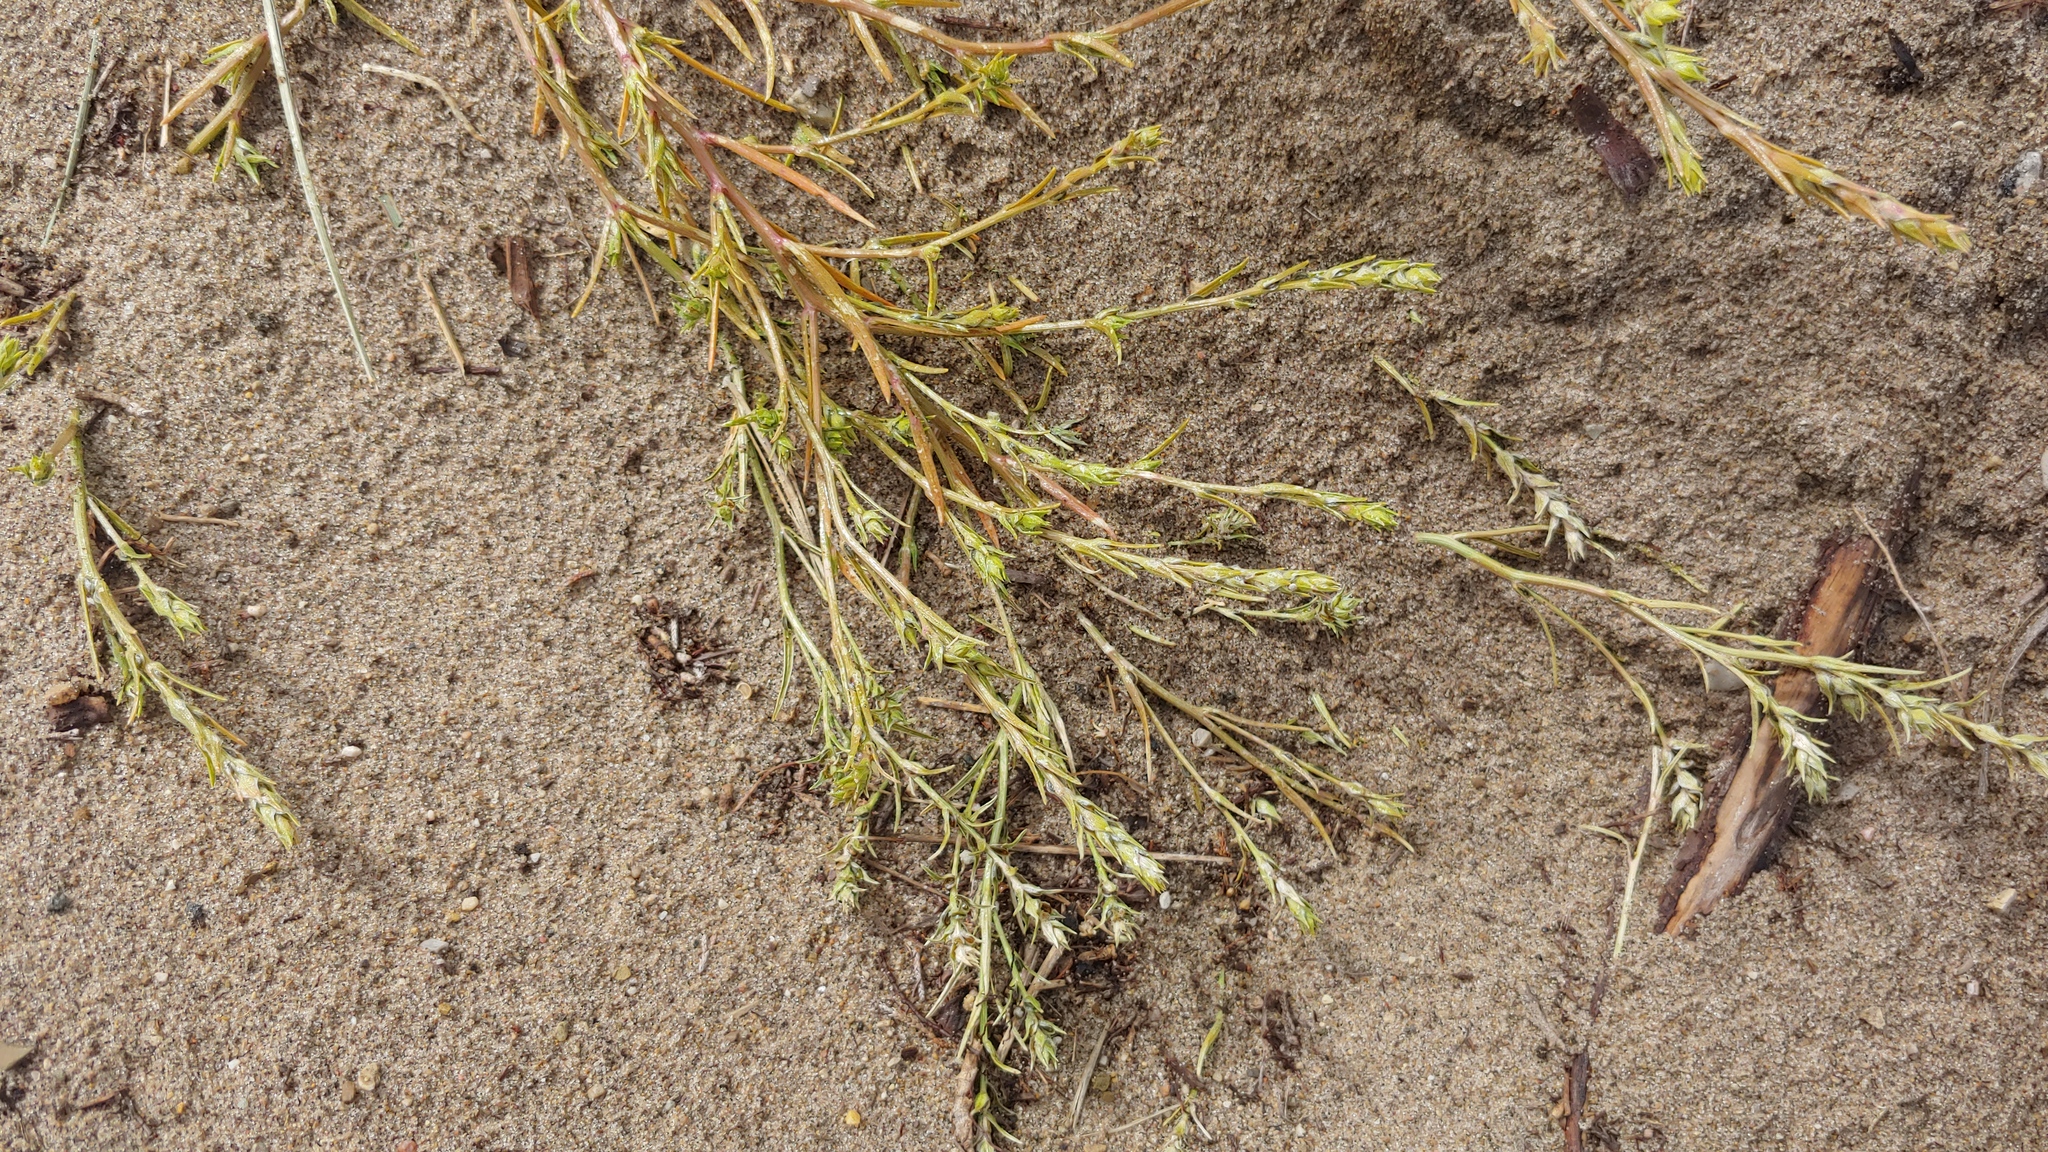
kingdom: Plantae
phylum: Tracheophyta
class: Magnoliopsida
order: Caryophyllales
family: Amaranthaceae
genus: Corispermum
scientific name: Corispermum americanum
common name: American bugseed
